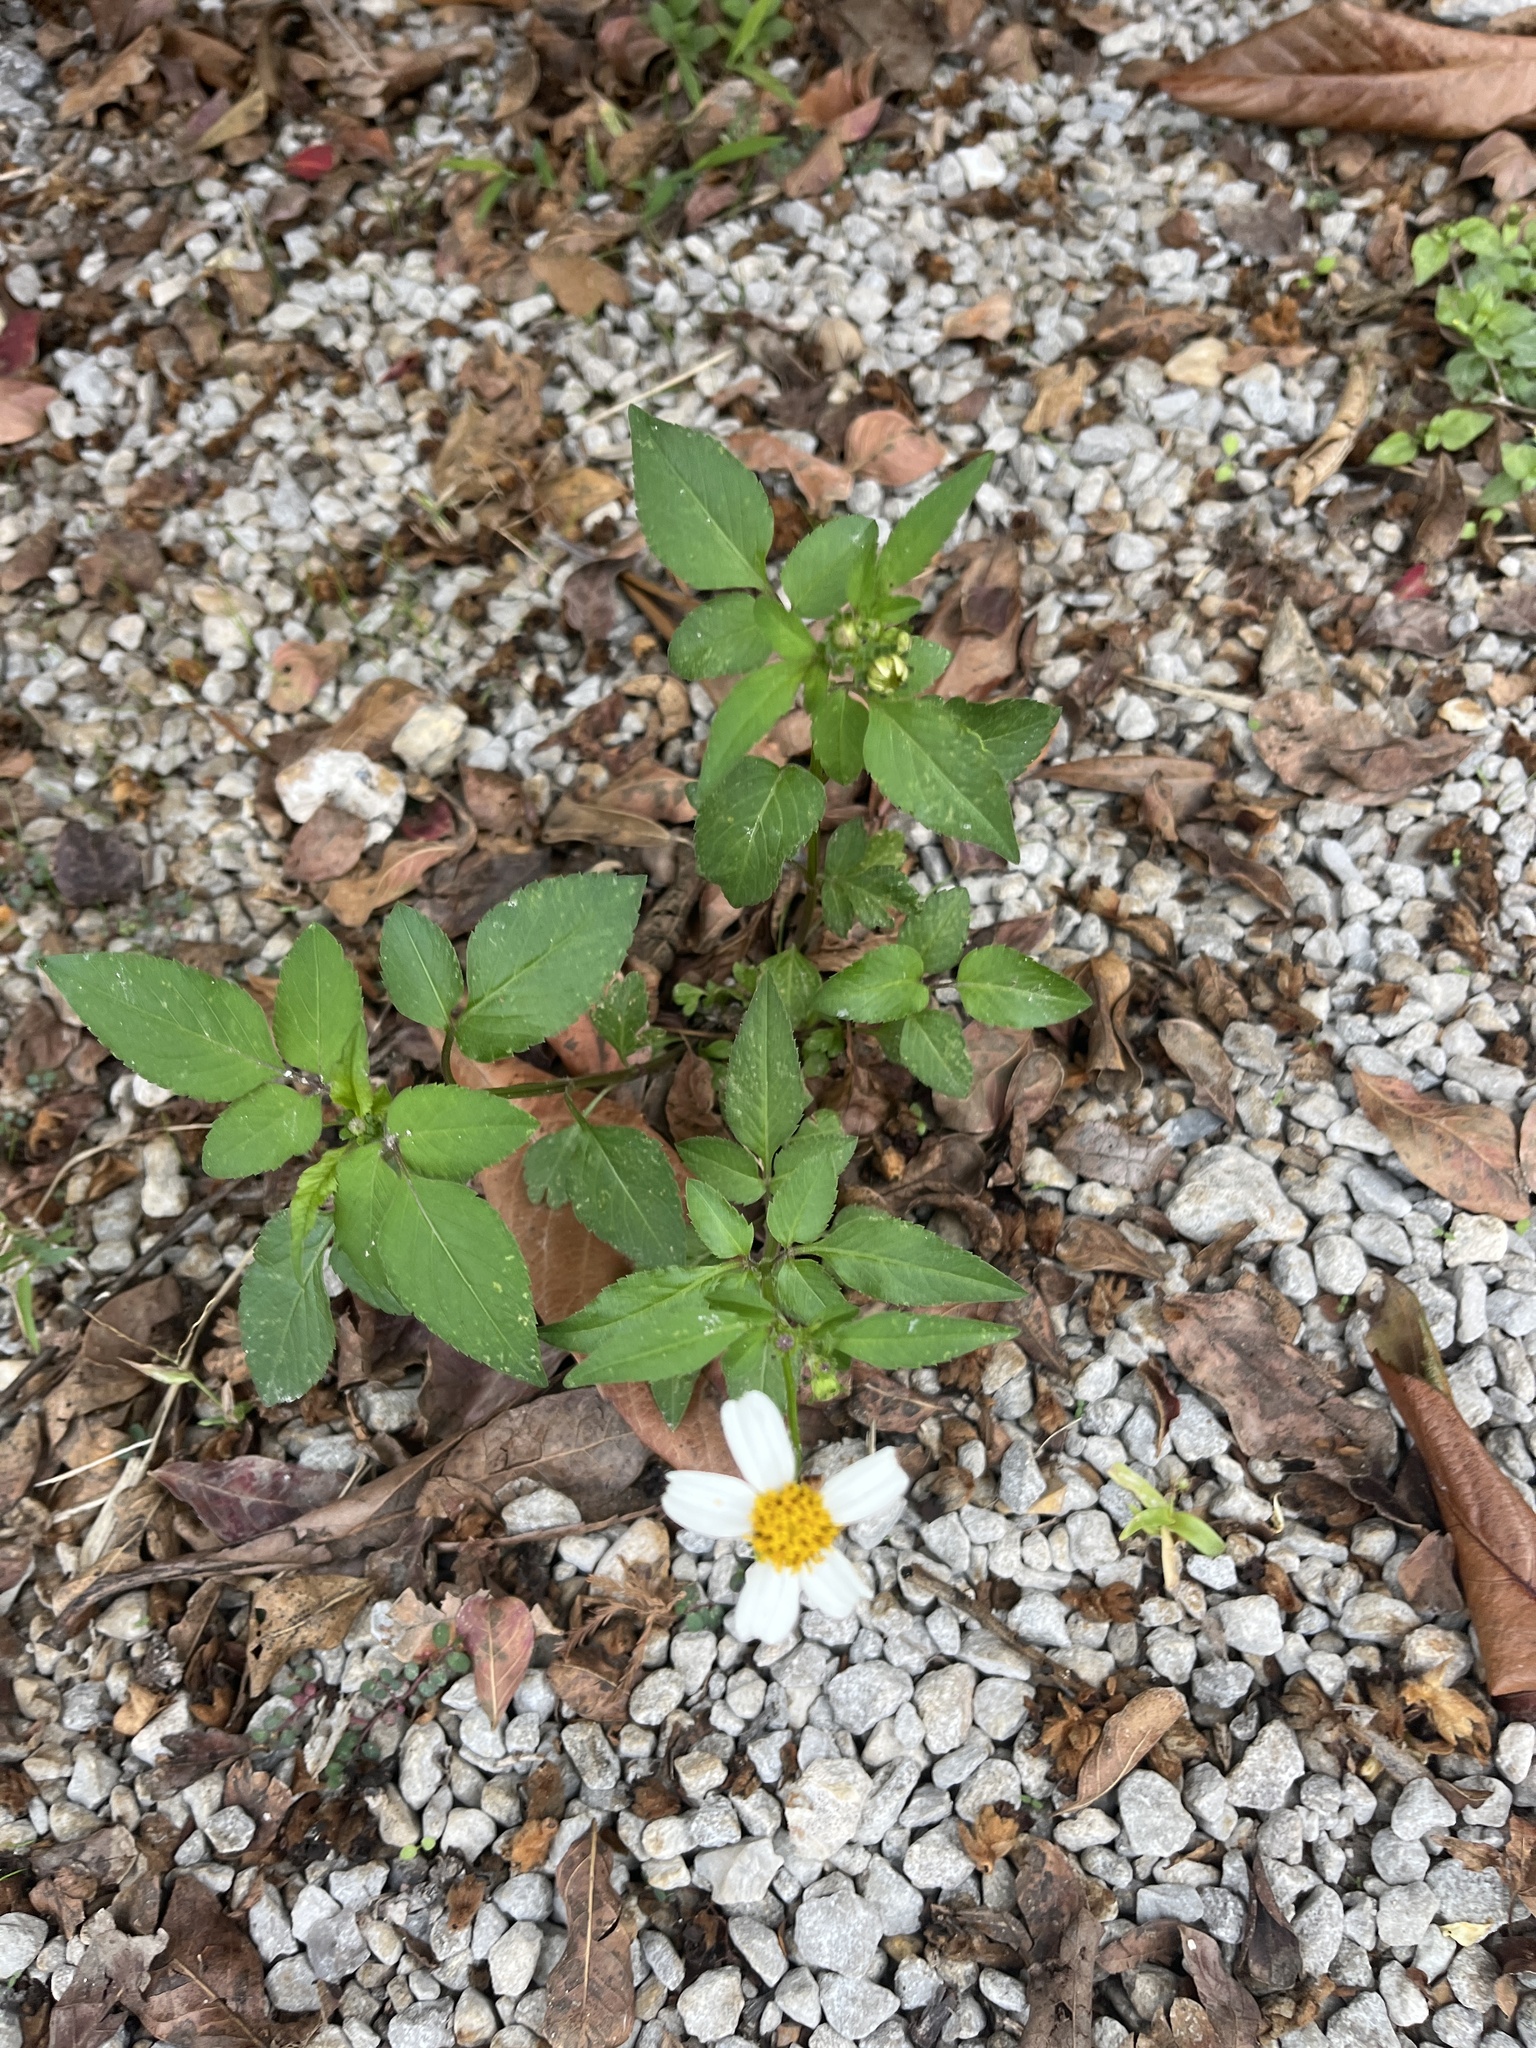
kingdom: Plantae
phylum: Tracheophyta
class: Magnoliopsida
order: Asterales
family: Asteraceae
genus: Bidens
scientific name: Bidens alba
